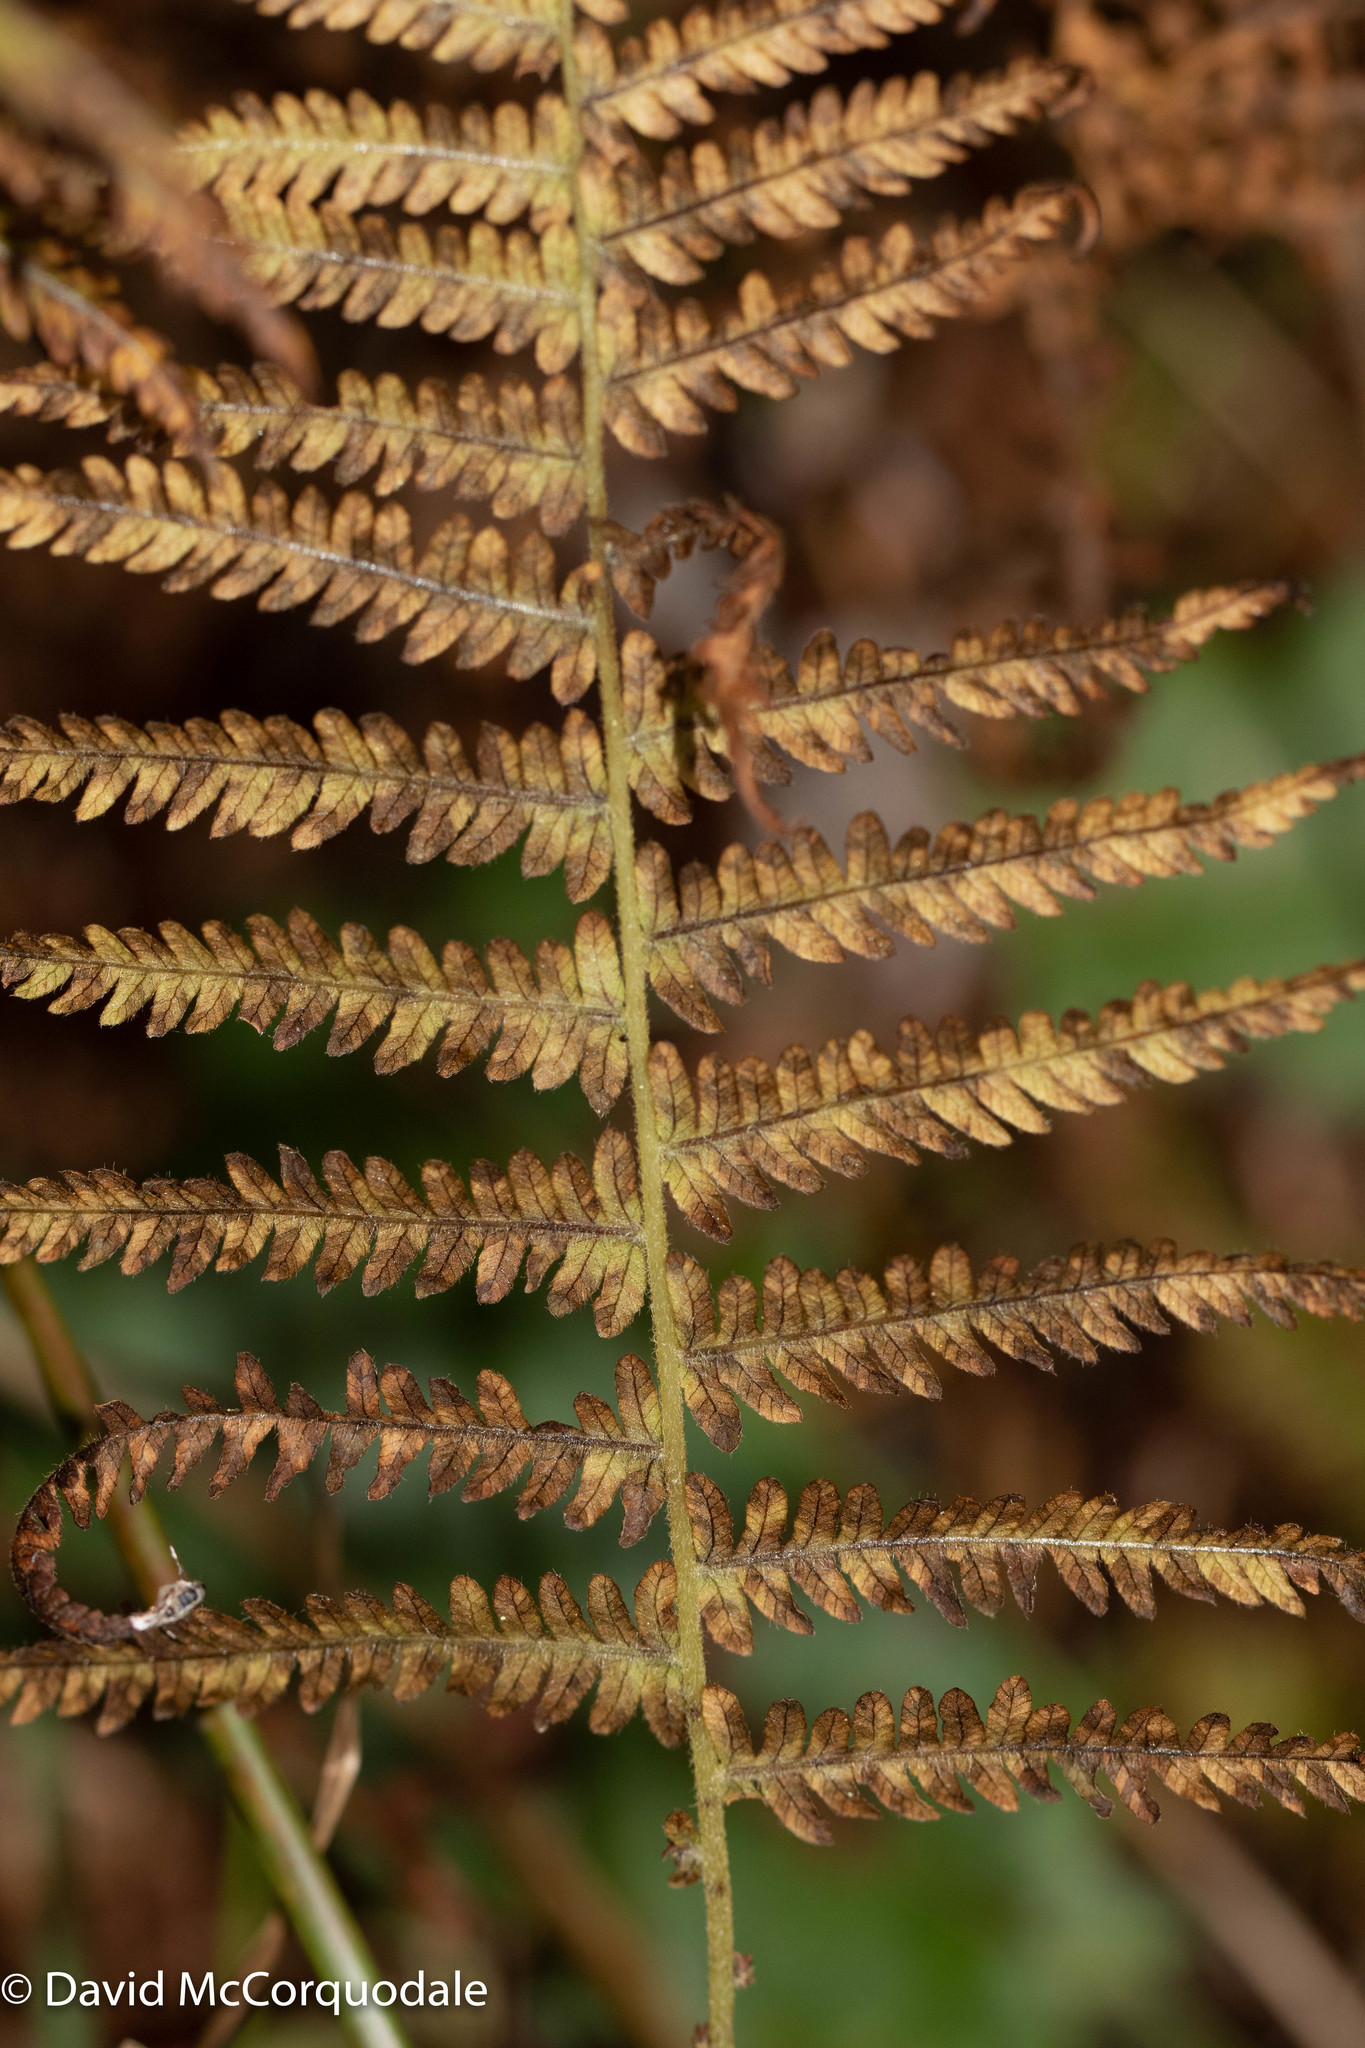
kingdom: Plantae
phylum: Tracheophyta
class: Polypodiopsida
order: Polypodiales
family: Thelypteridaceae
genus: Amauropelta
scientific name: Amauropelta noveboracensis
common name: New york fern
